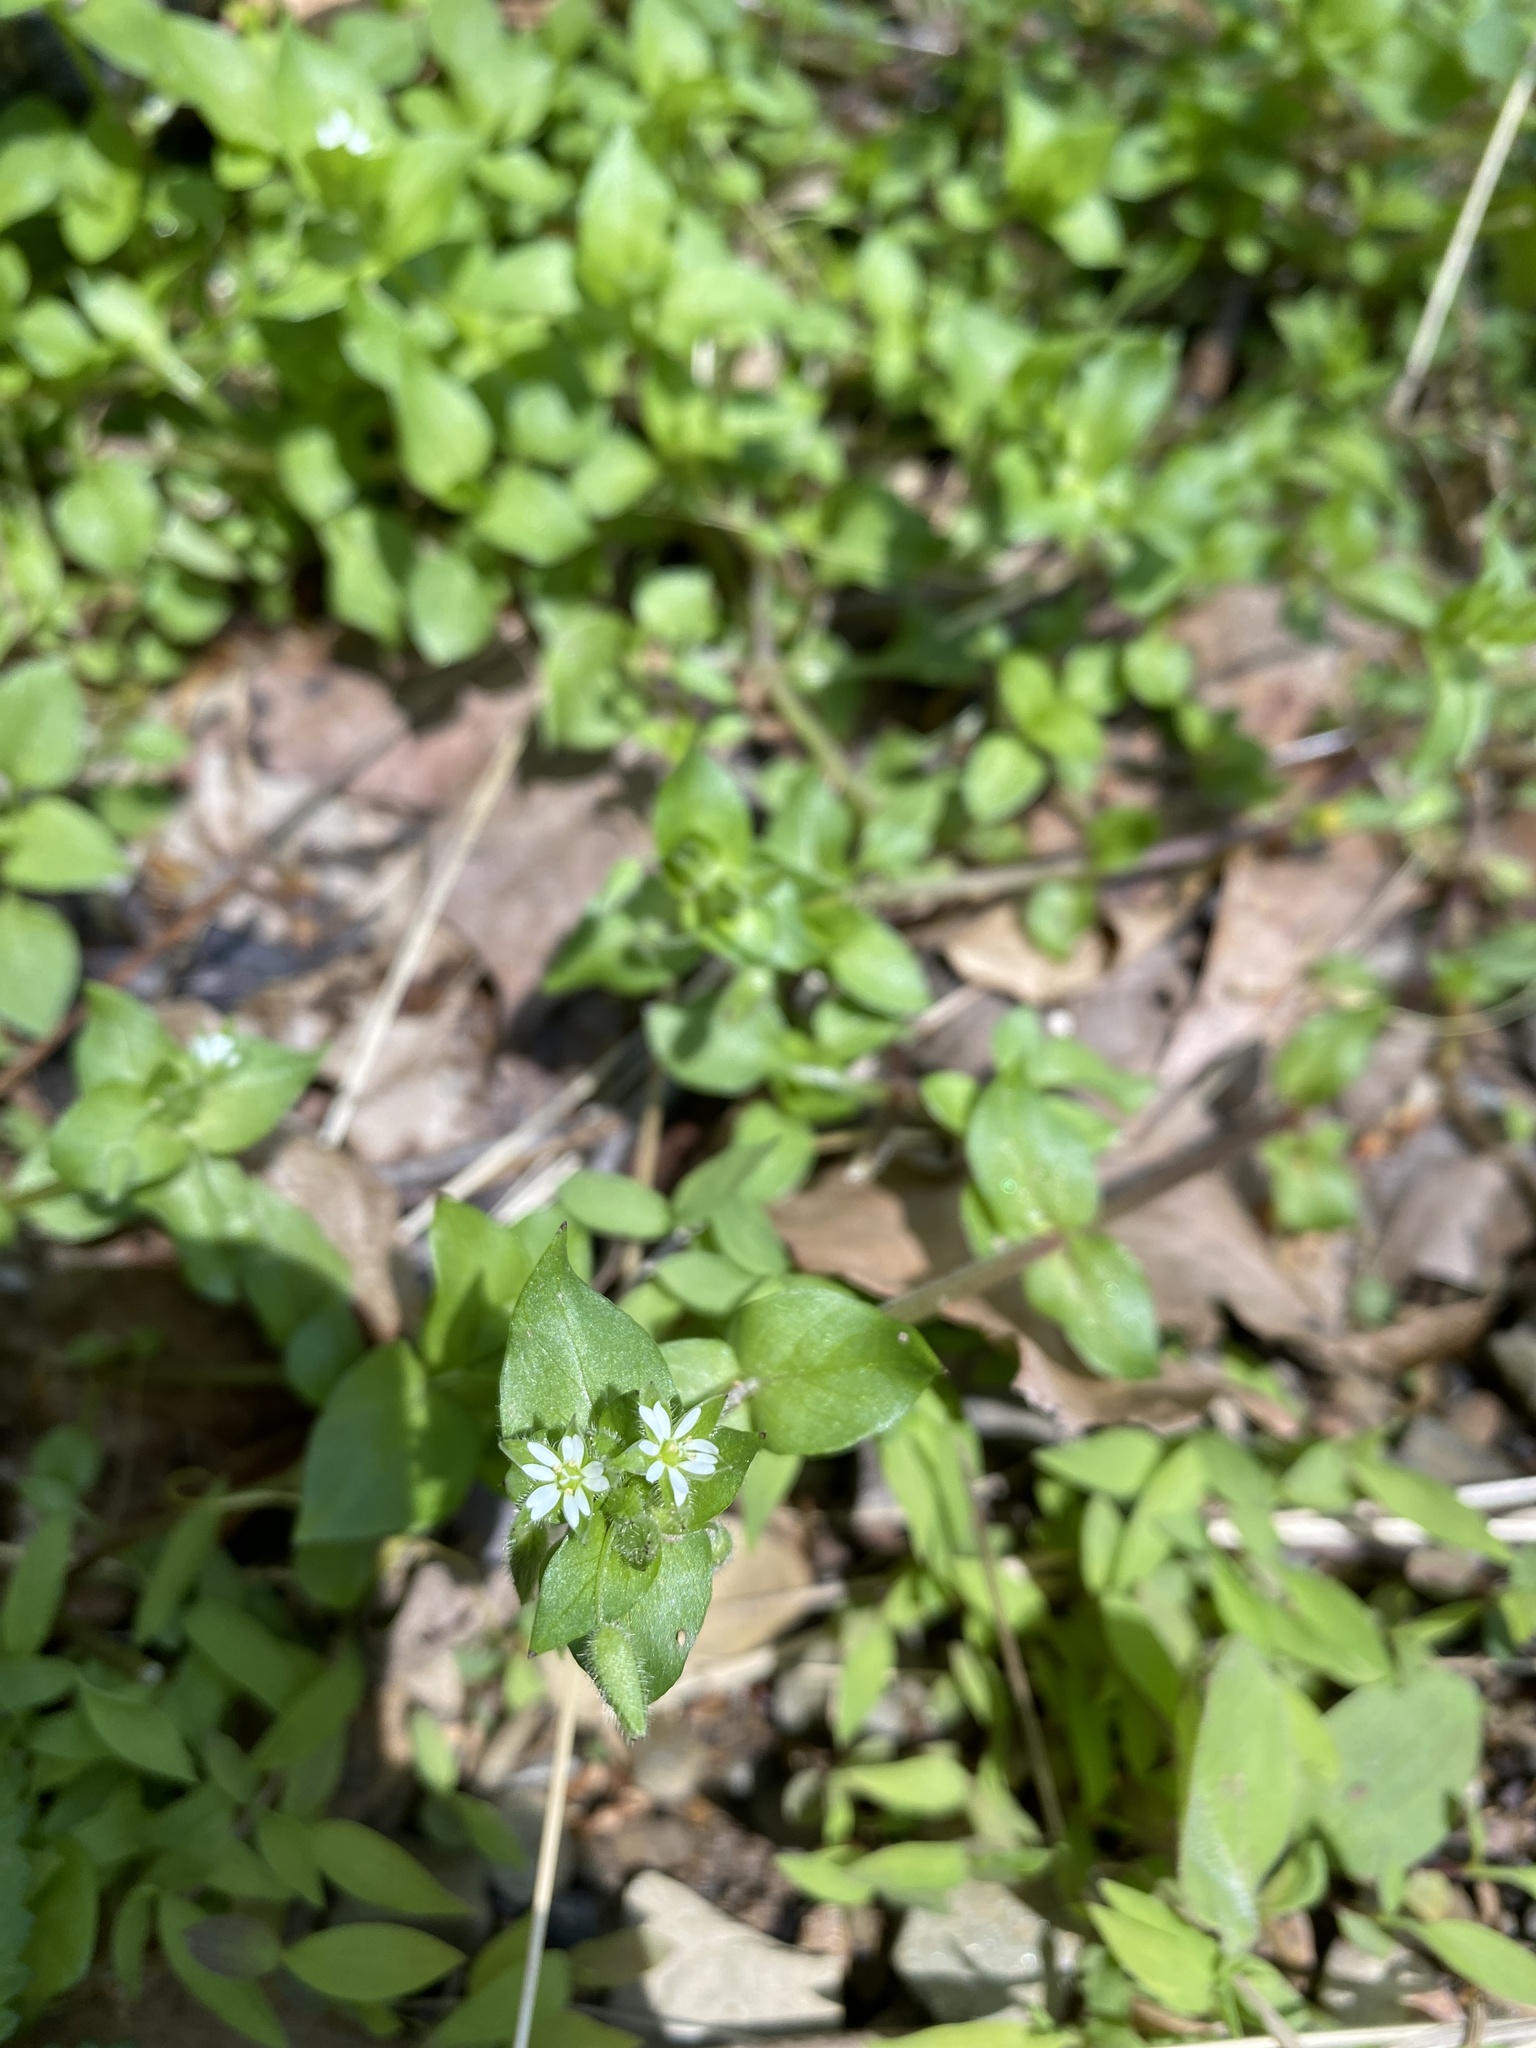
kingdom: Plantae
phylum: Tracheophyta
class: Magnoliopsida
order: Caryophyllales
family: Caryophyllaceae
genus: Stellaria
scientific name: Stellaria media
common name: Common chickweed
